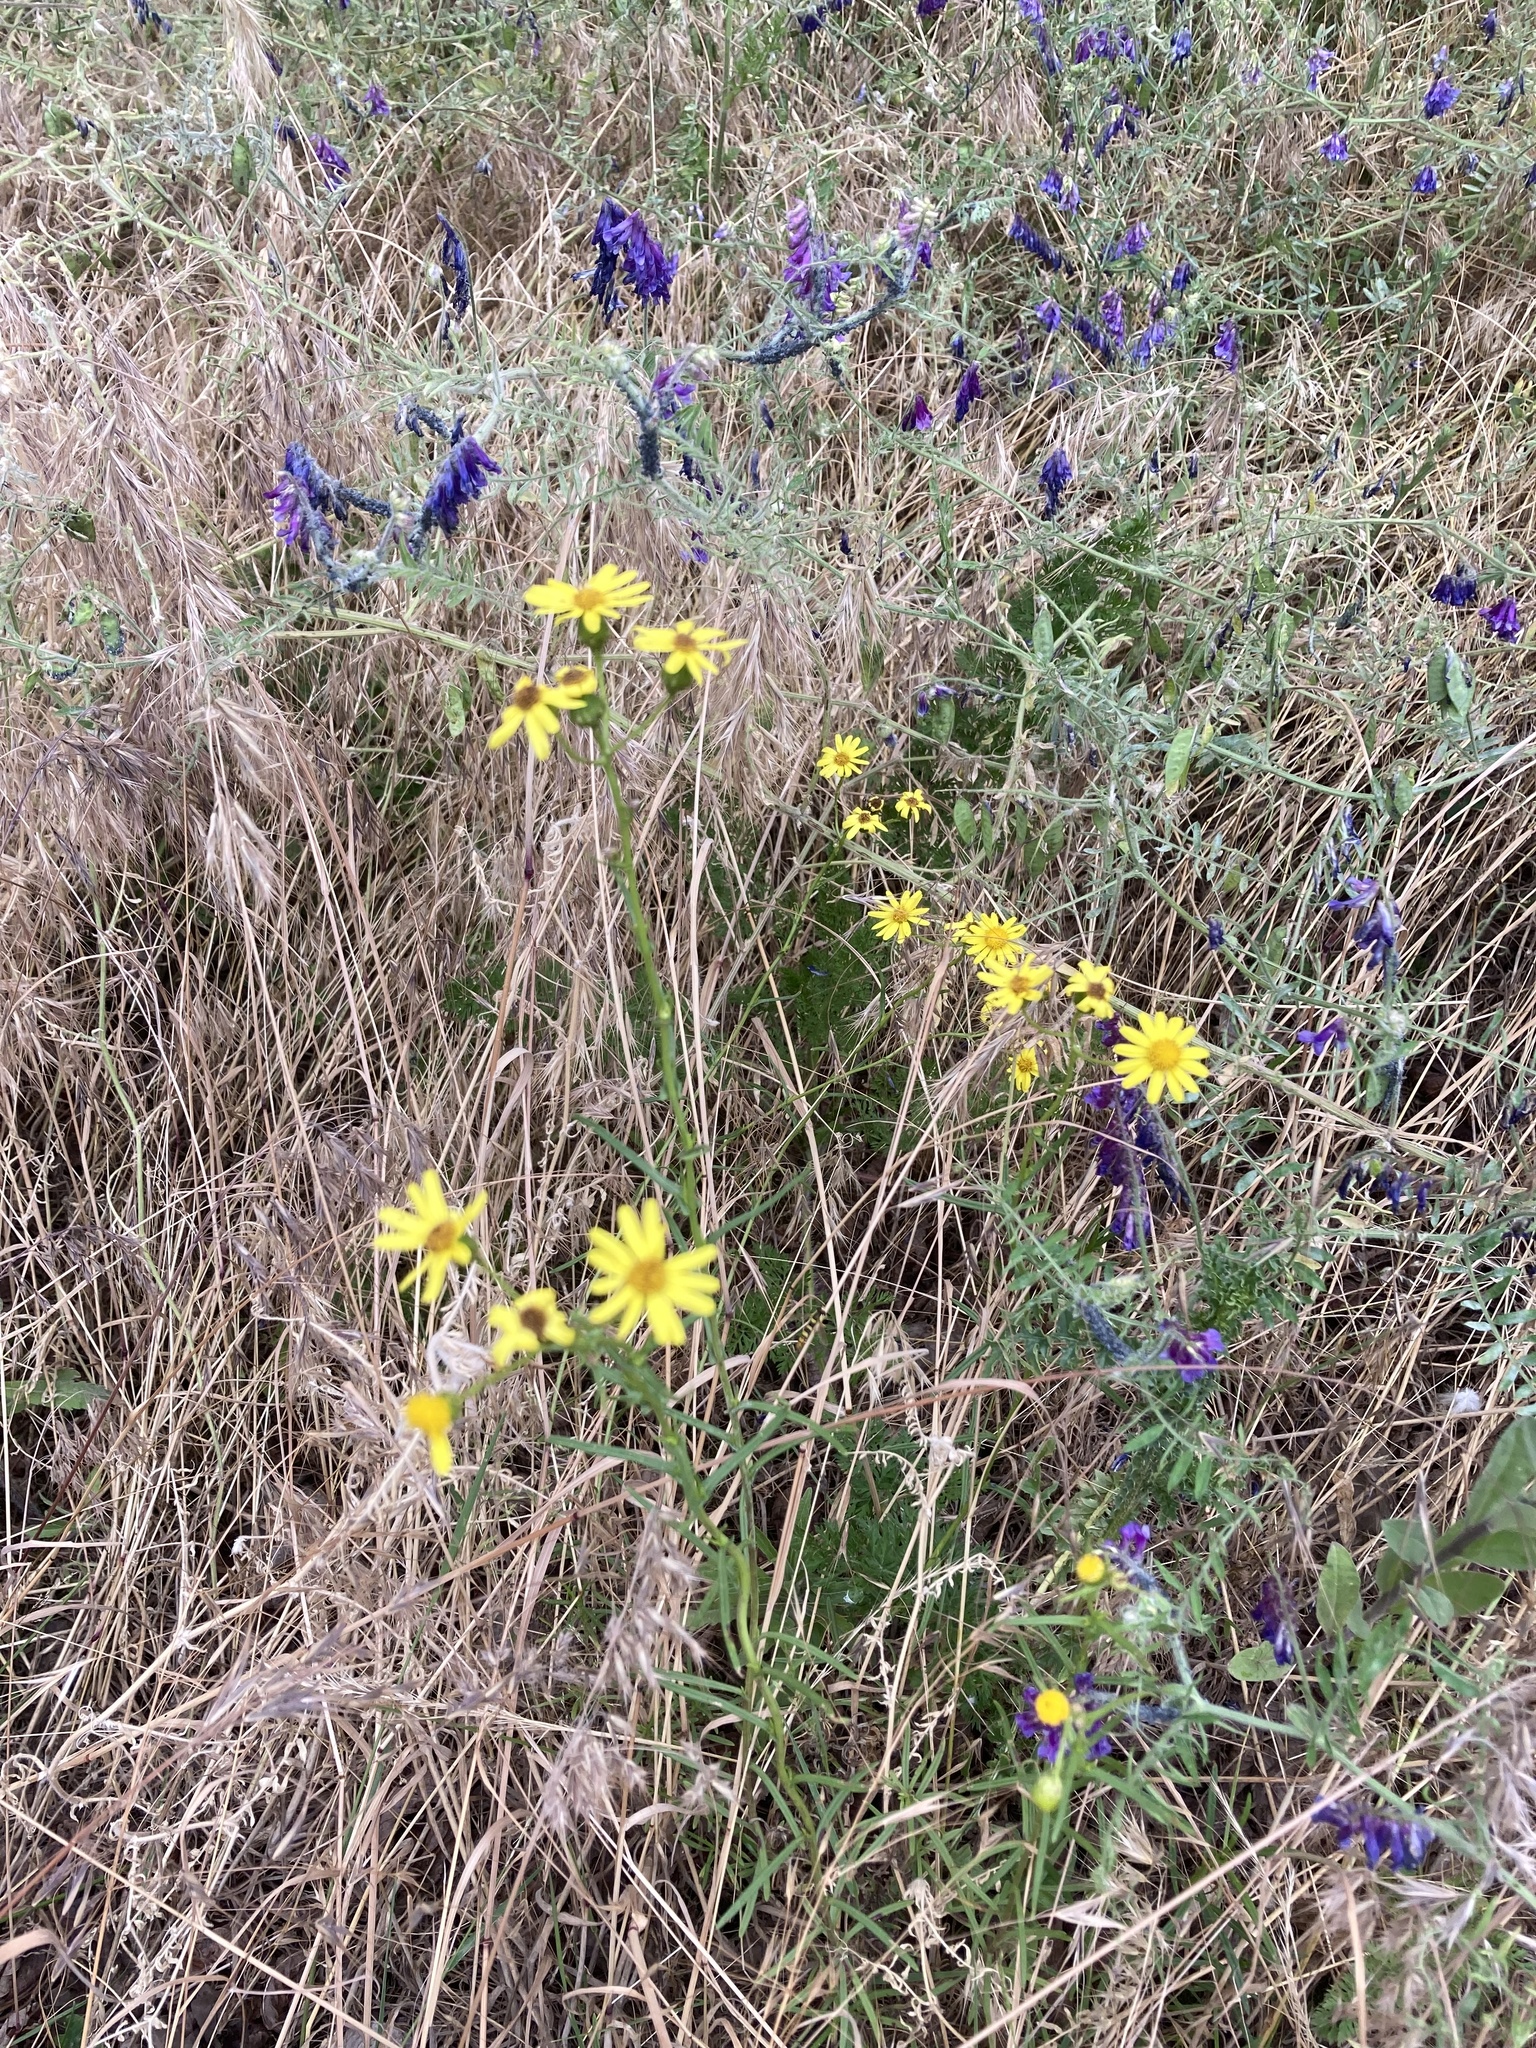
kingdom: Plantae
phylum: Tracheophyta
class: Magnoliopsida
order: Asterales
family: Asteraceae
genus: Senecio
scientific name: Senecio inaequidens
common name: Narrow-leaved ragwort
